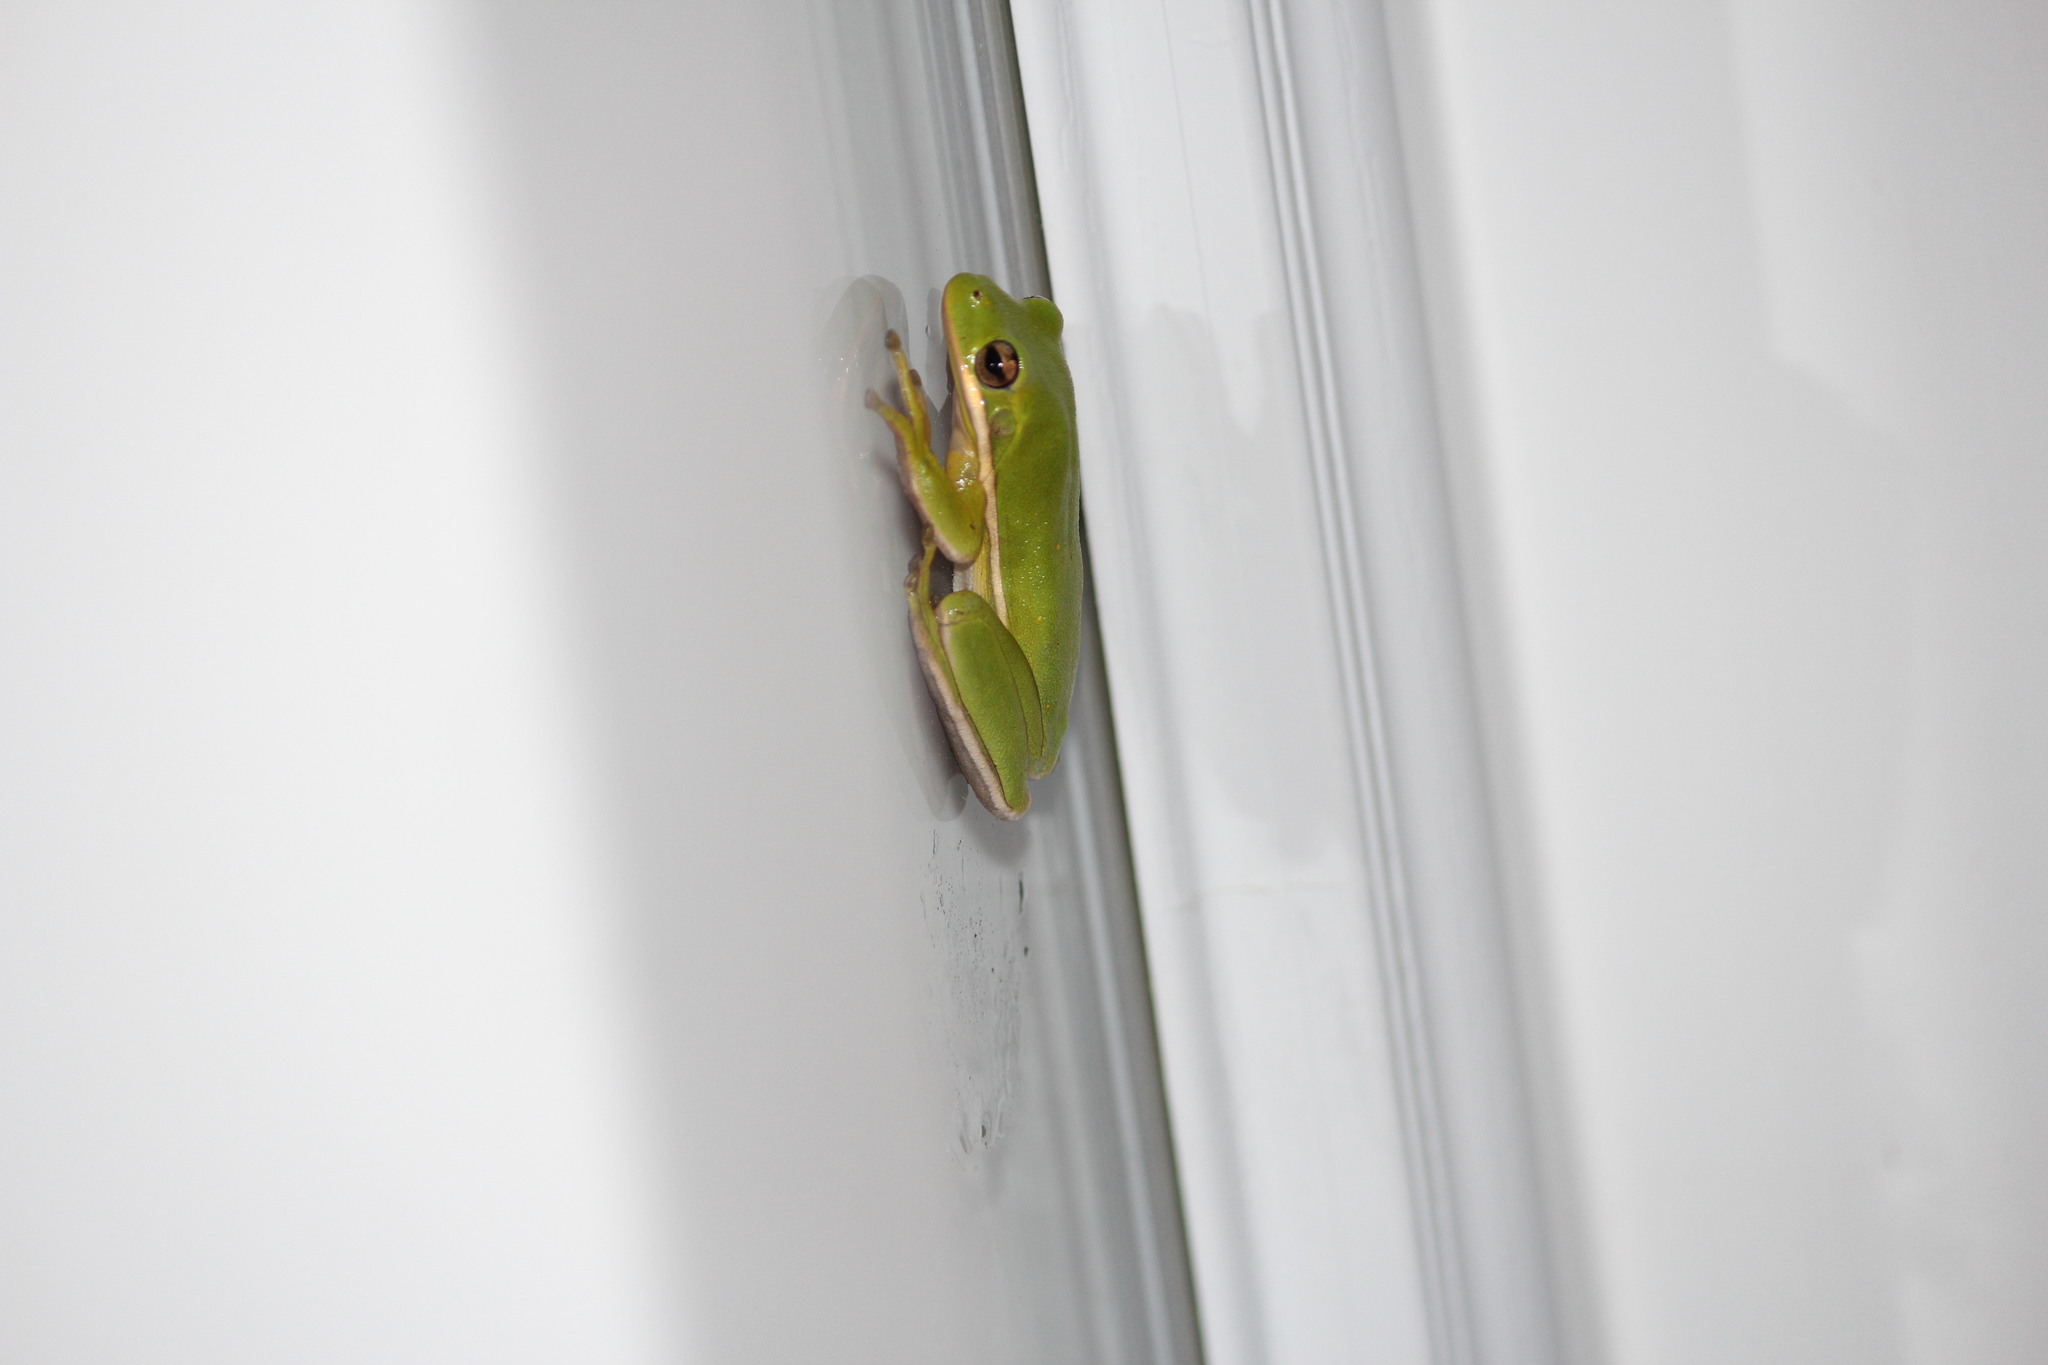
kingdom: Animalia
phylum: Chordata
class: Amphibia
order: Anura
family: Hylidae
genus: Dryophytes
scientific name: Dryophytes cinereus
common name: Green treefrog
